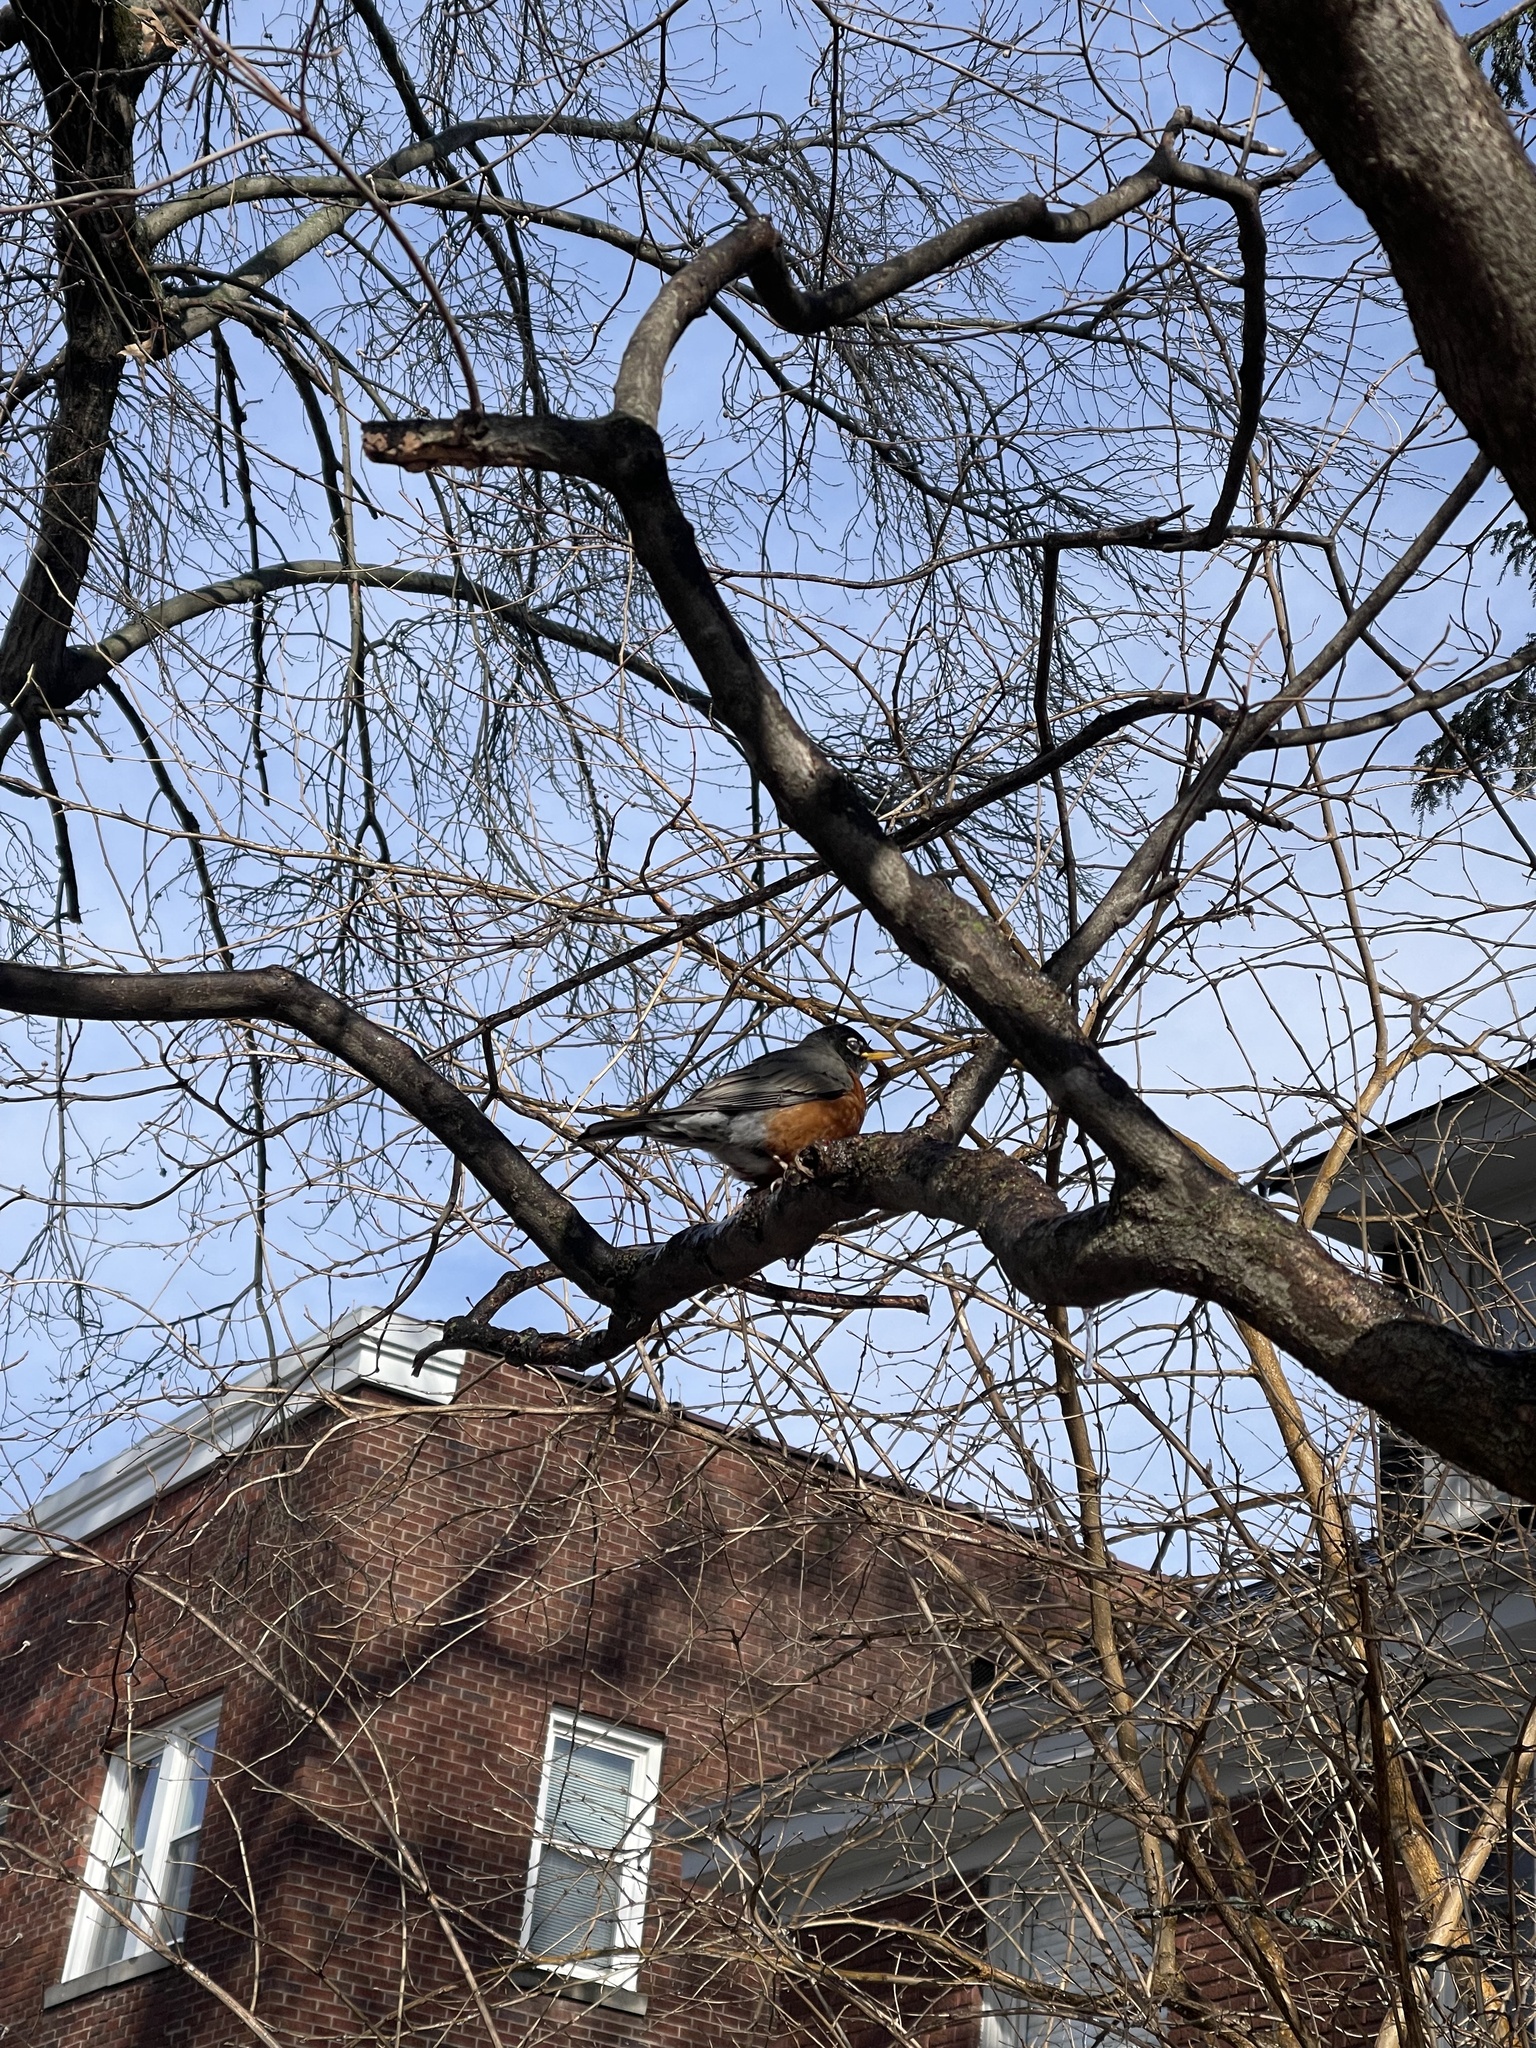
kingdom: Animalia
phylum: Chordata
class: Aves
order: Passeriformes
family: Turdidae
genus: Turdus
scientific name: Turdus migratorius
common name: American robin
